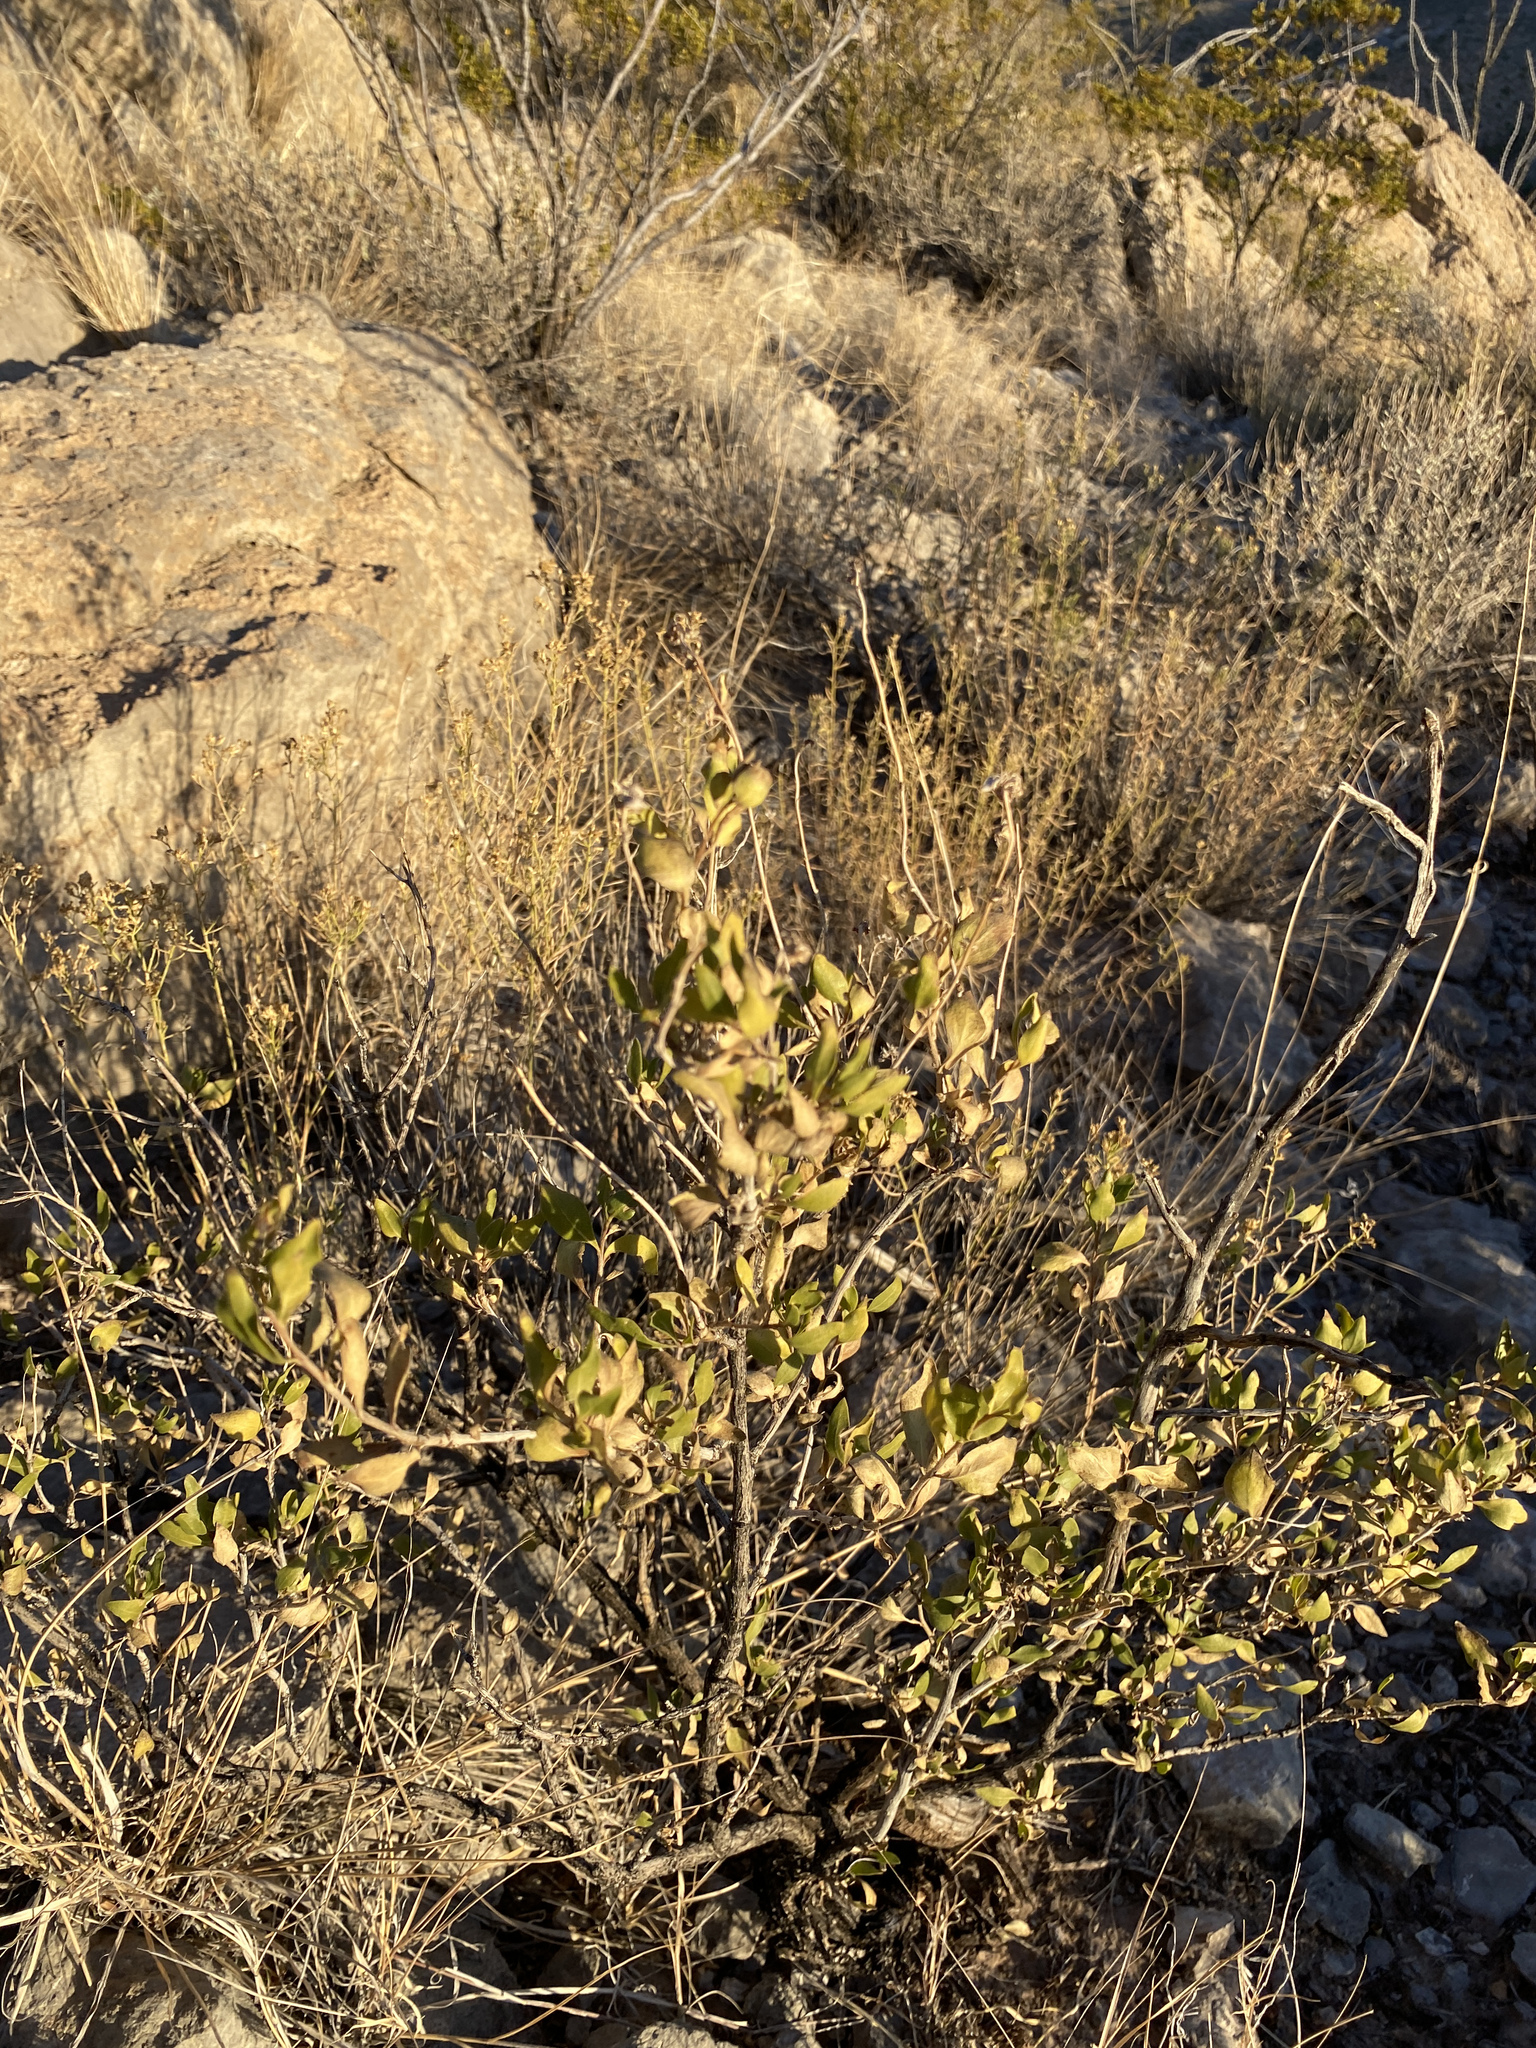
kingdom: Plantae
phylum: Tracheophyta
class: Magnoliopsida
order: Asterales
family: Asteraceae
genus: Flourensia
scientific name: Flourensia cernua
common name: Varnishbush
